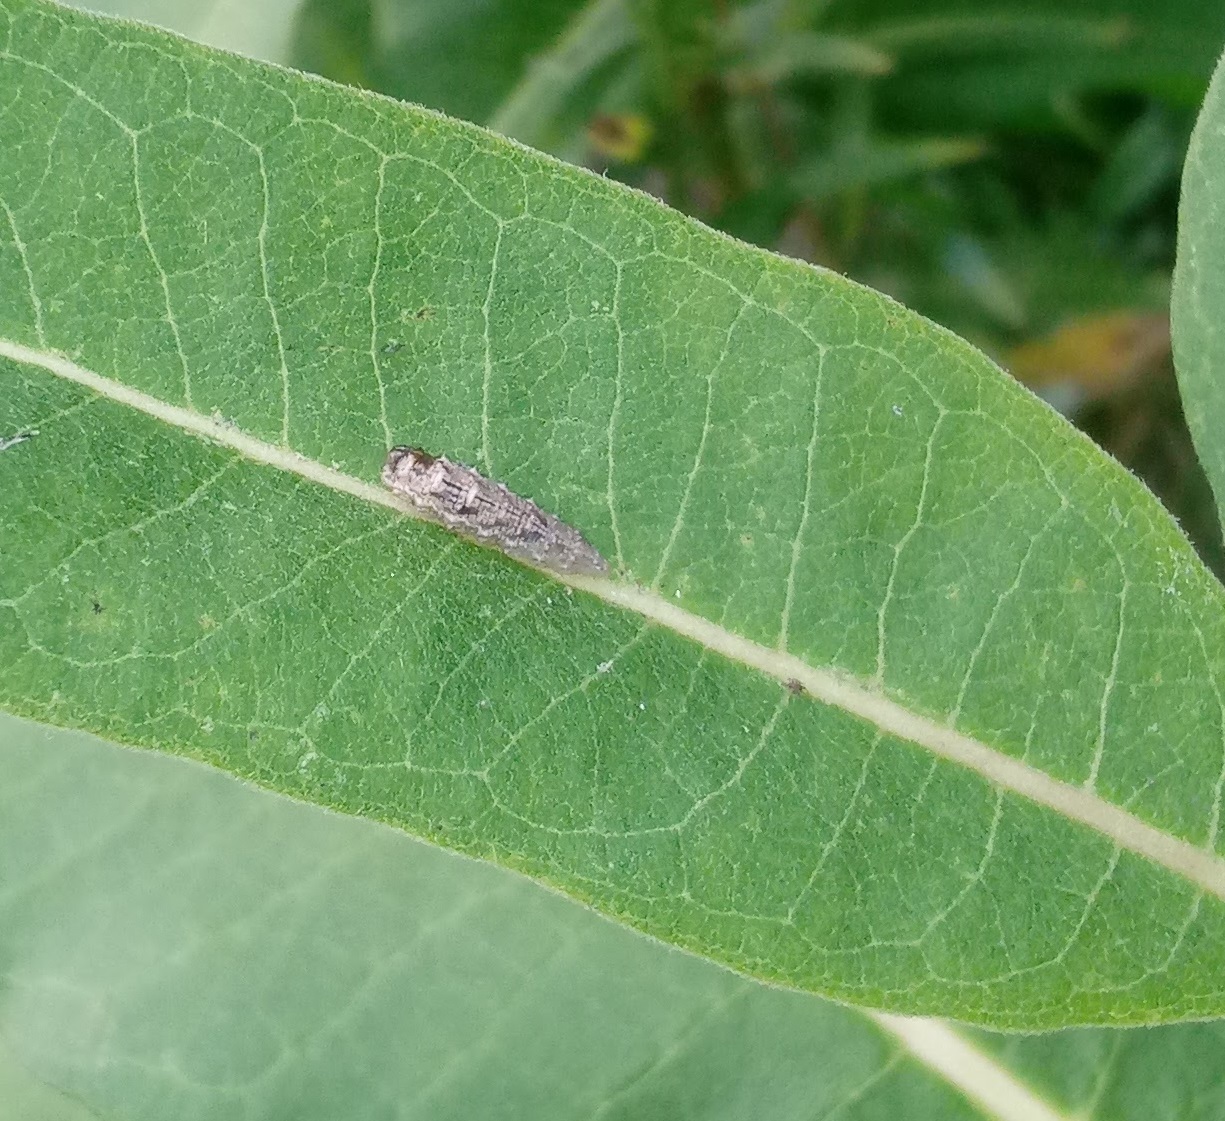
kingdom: Animalia
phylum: Arthropoda
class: Insecta
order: Diptera
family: Syrphidae
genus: Eupeodes
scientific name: Eupeodes americanus
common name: Long-tailed aphideater
